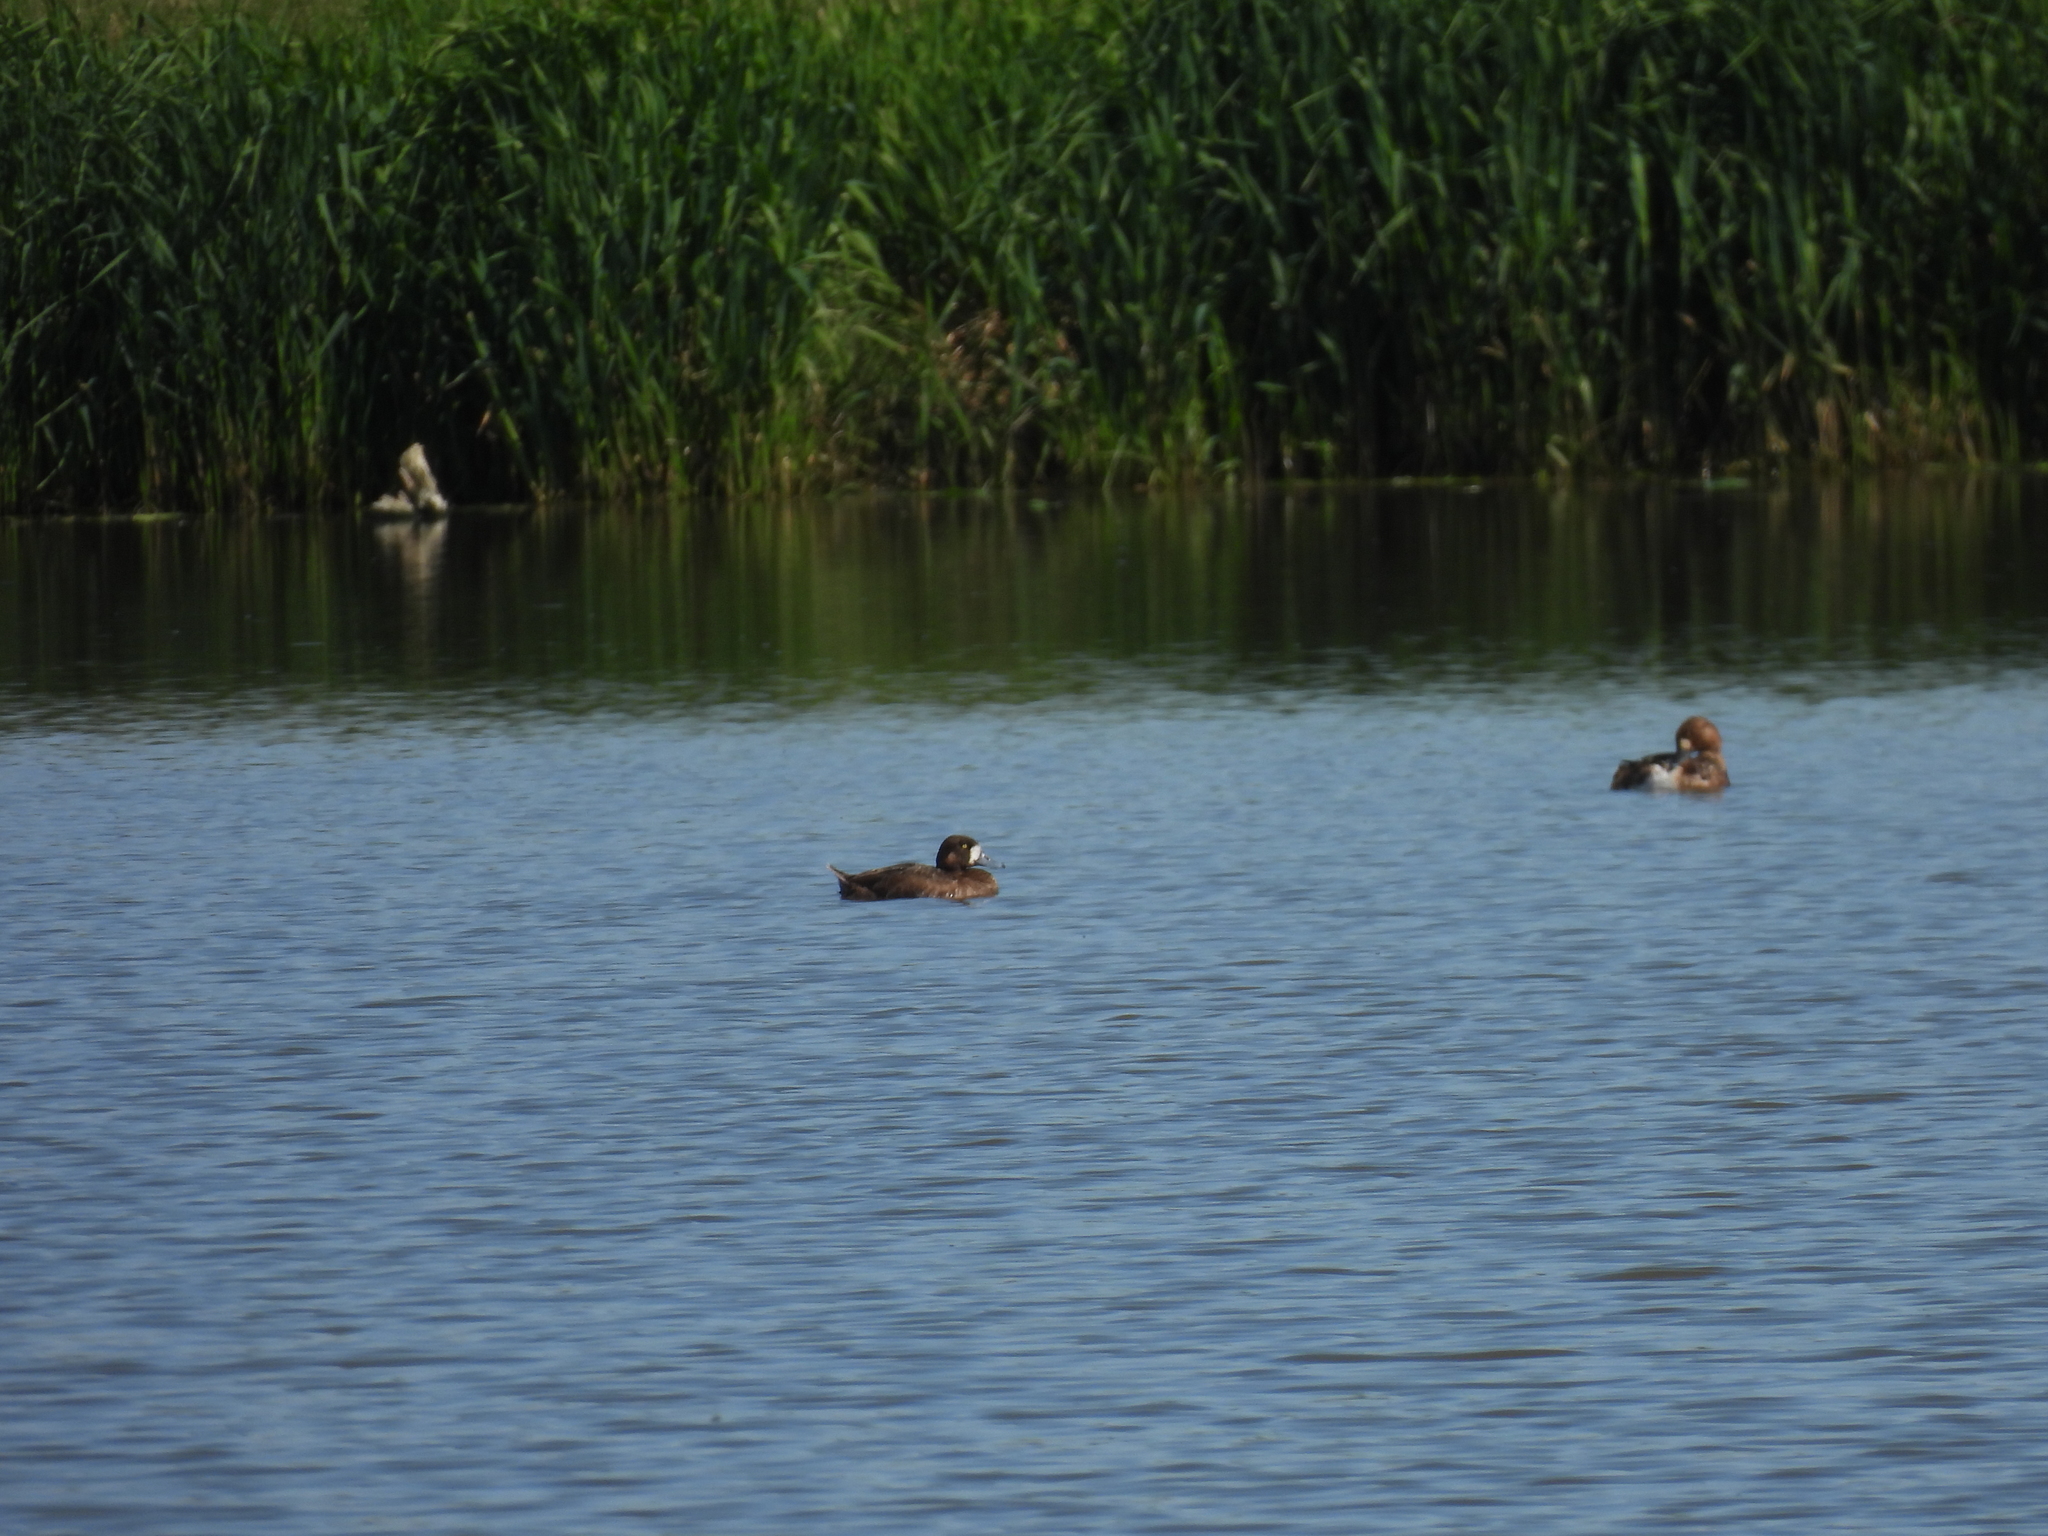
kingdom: Animalia
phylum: Chordata
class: Aves
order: Anseriformes
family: Anatidae
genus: Aythya
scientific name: Aythya marila
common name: Greater scaup
